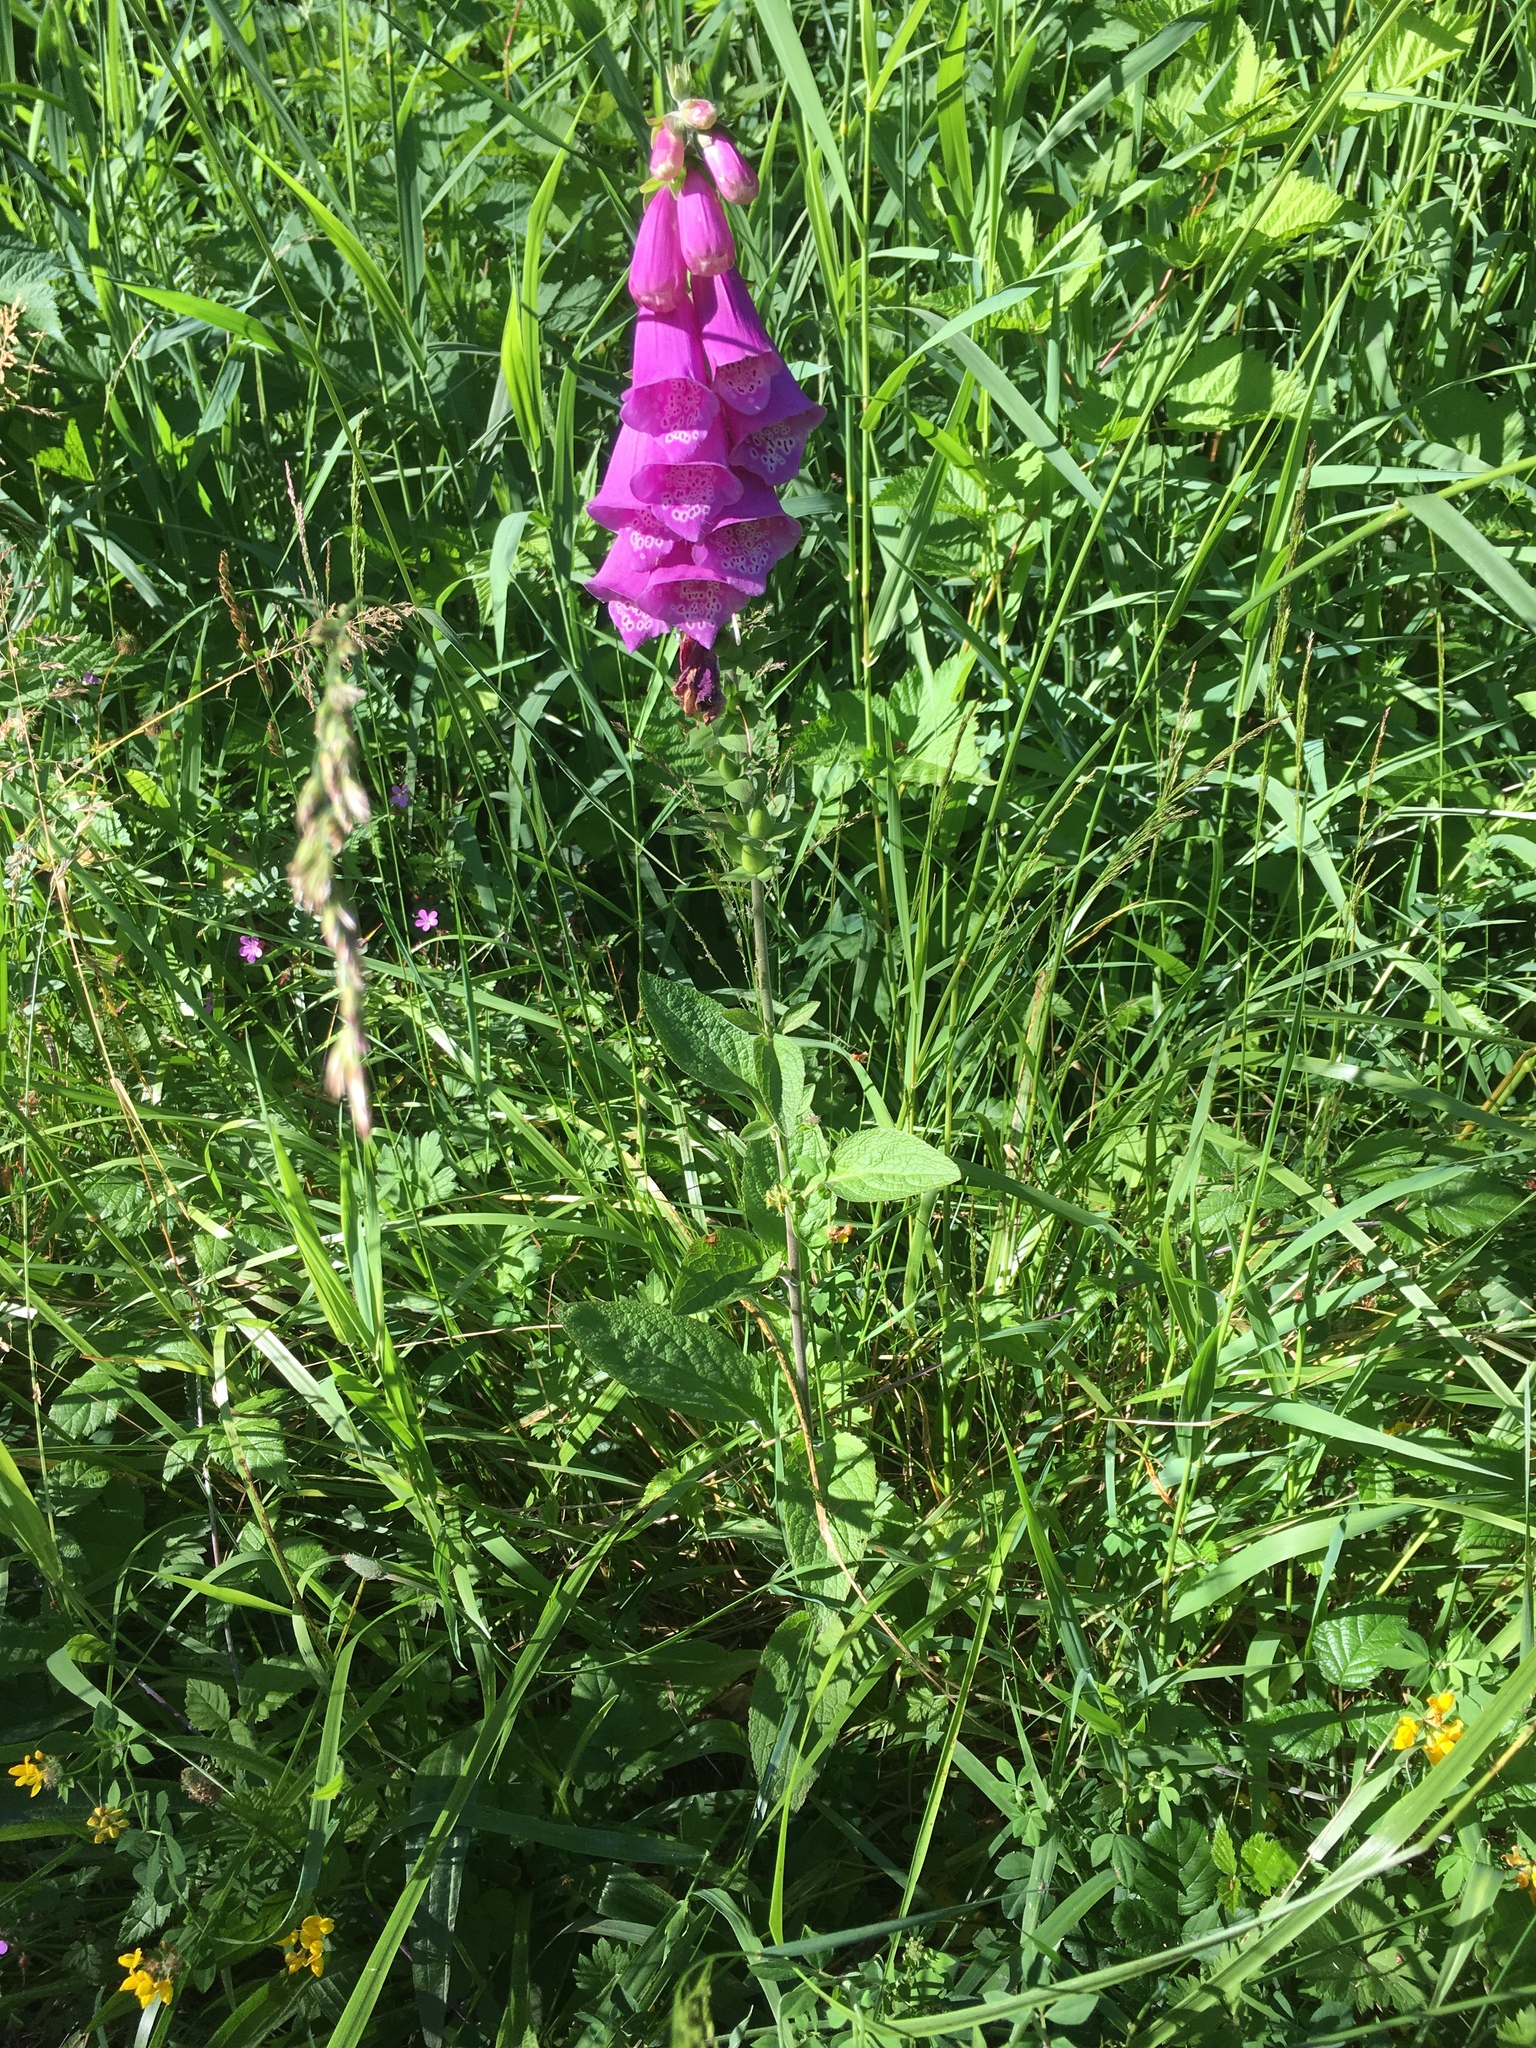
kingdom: Plantae
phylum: Tracheophyta
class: Magnoliopsida
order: Lamiales
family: Plantaginaceae
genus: Digitalis
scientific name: Digitalis purpurea
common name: Foxglove
